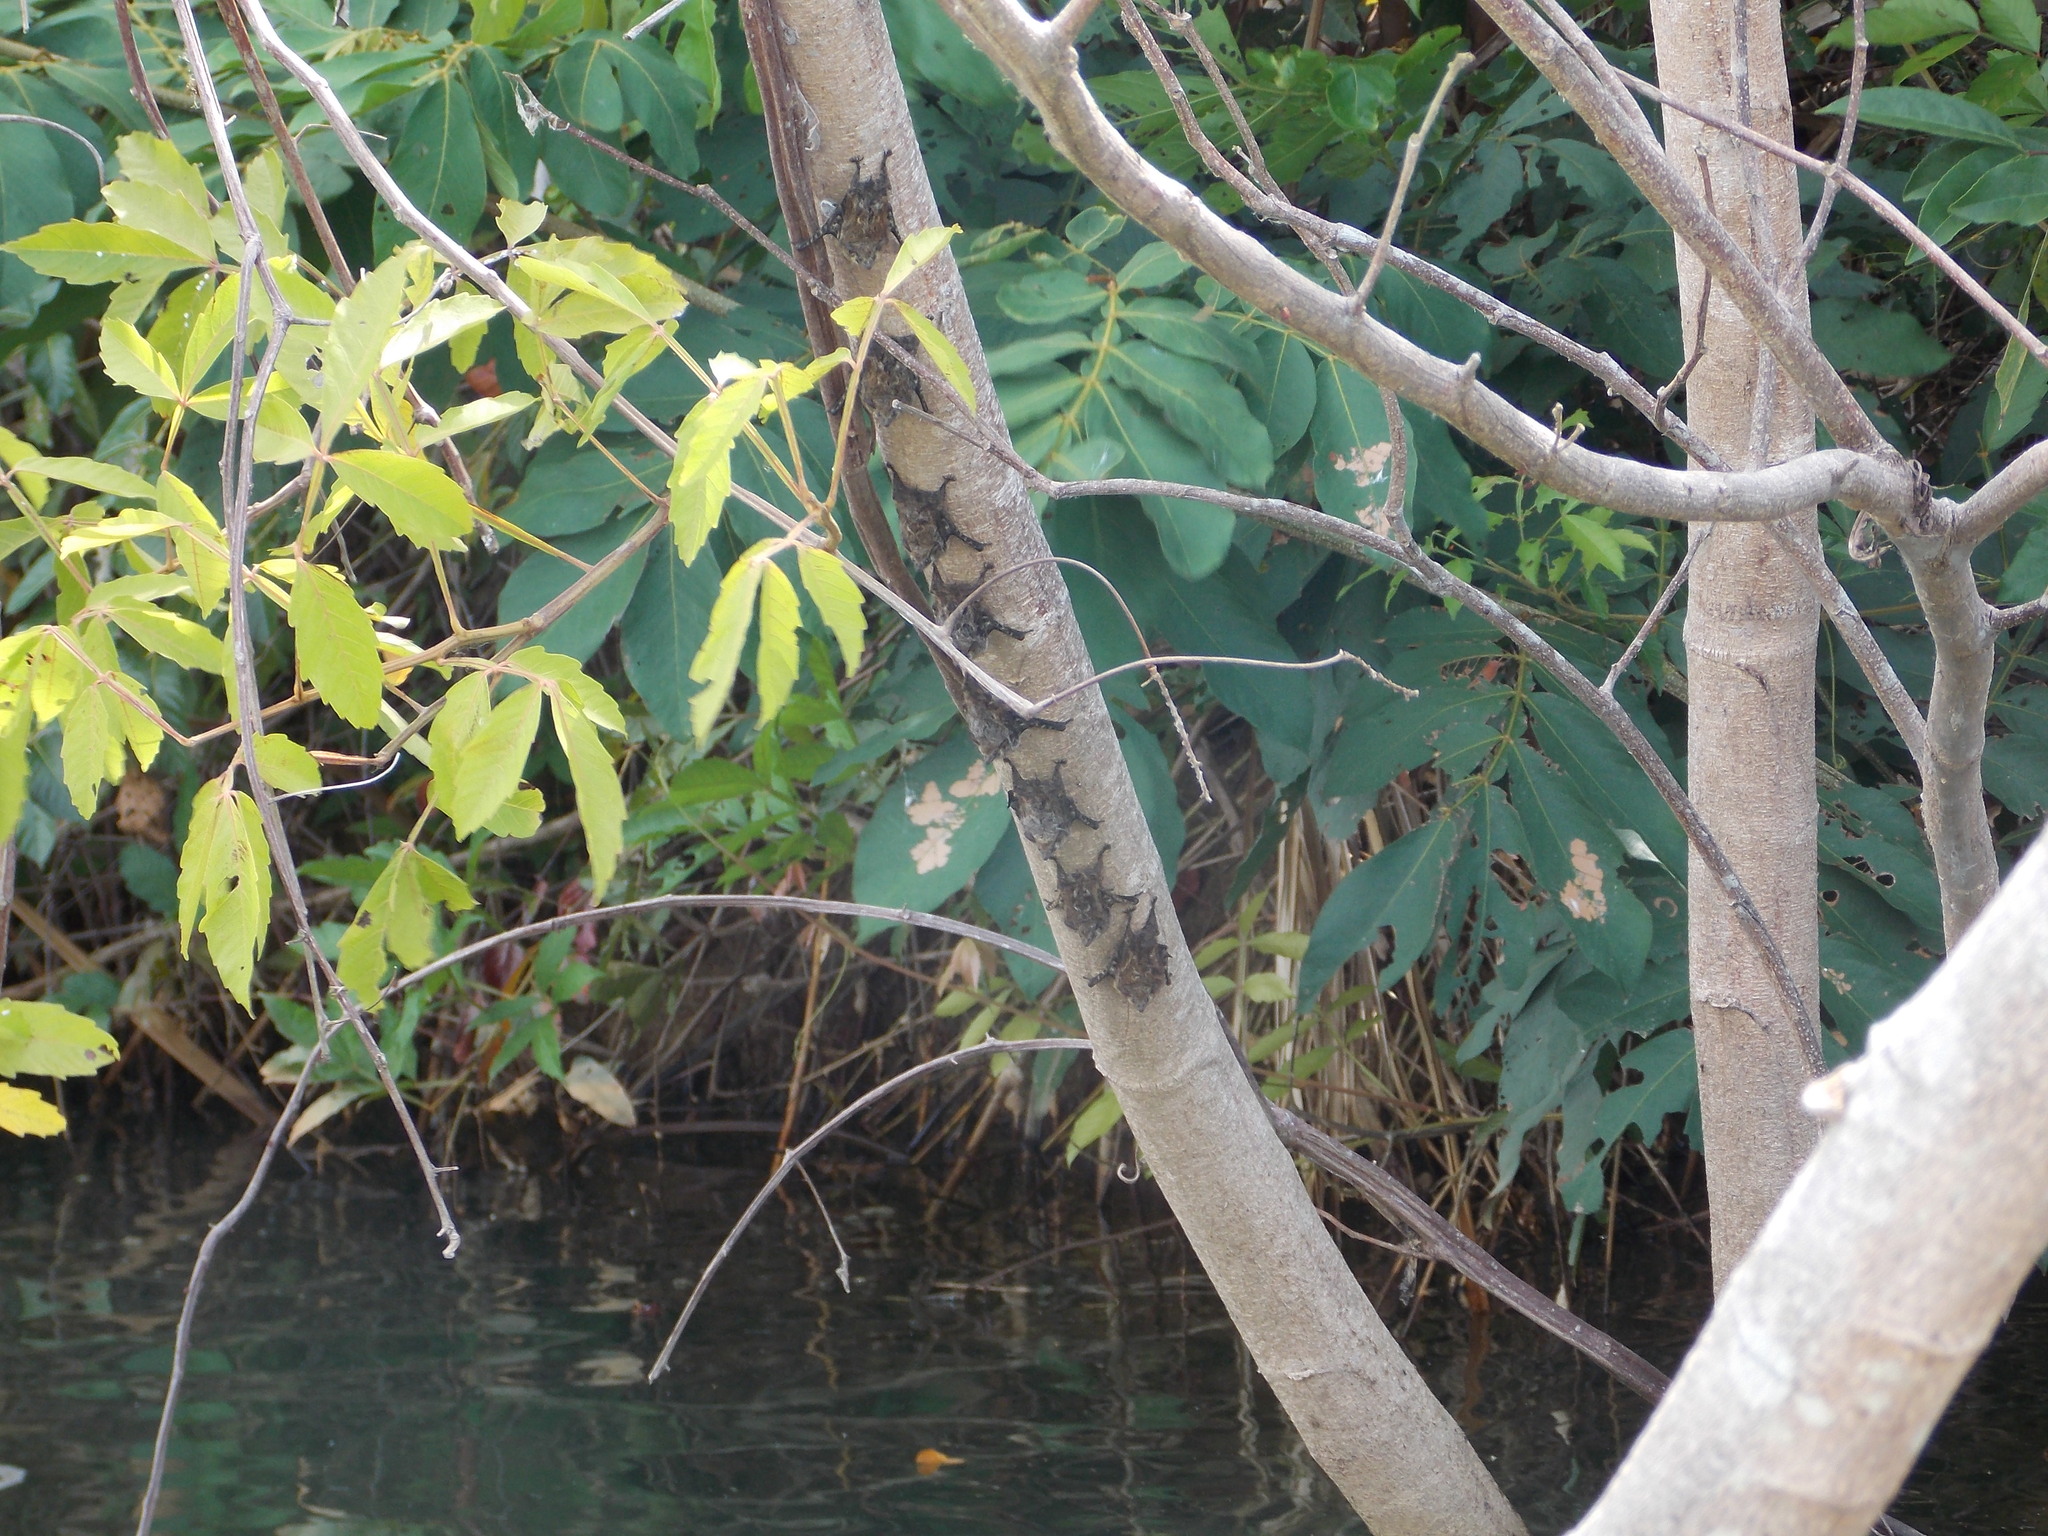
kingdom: Animalia
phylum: Chordata
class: Mammalia
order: Chiroptera
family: Emballonuridae
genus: Rhynchonycteris
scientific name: Rhynchonycteris naso
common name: Proboscis bat
